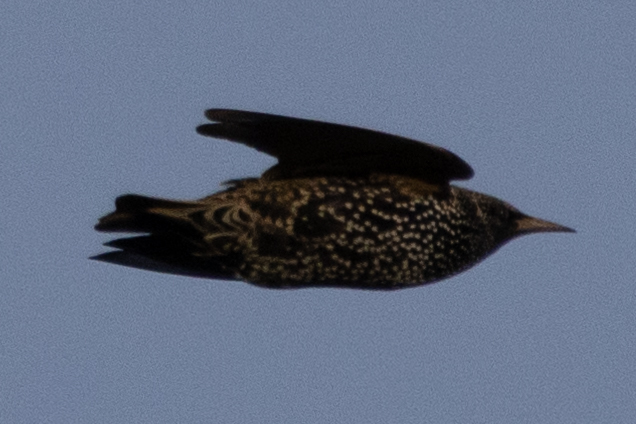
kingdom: Animalia
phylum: Chordata
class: Aves
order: Passeriformes
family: Sturnidae
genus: Sturnus
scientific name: Sturnus vulgaris
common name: Common starling
